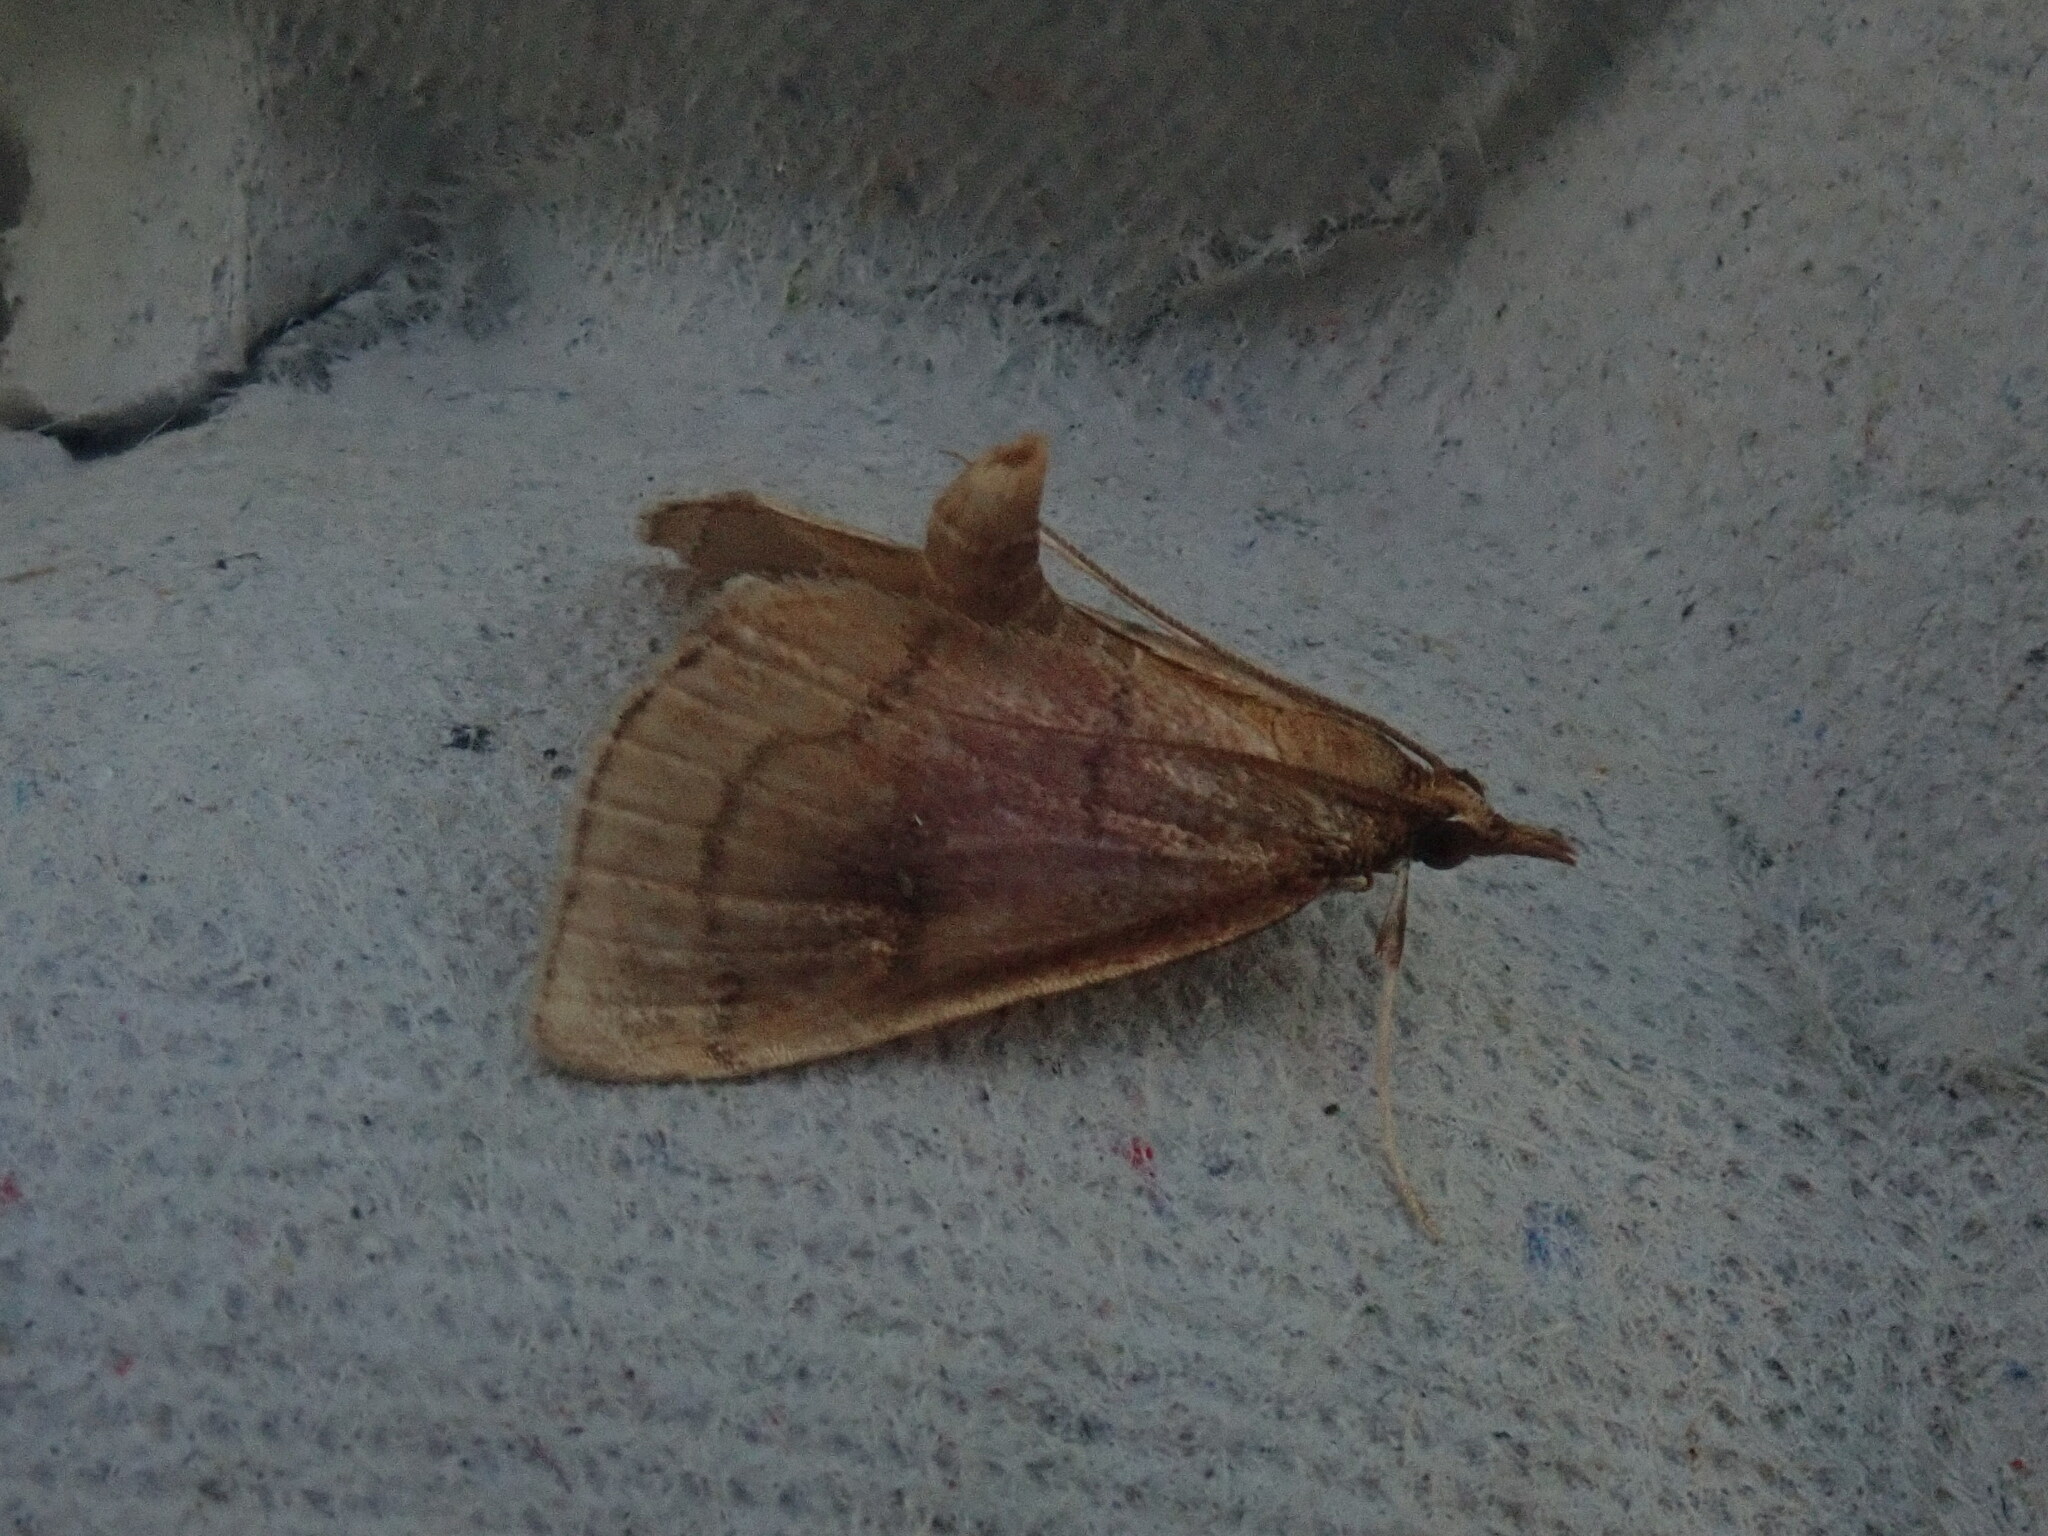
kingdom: Animalia
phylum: Arthropoda
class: Insecta
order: Lepidoptera
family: Crambidae
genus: Fumibotys
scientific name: Fumibotys fumalis
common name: Mint root borer moth
